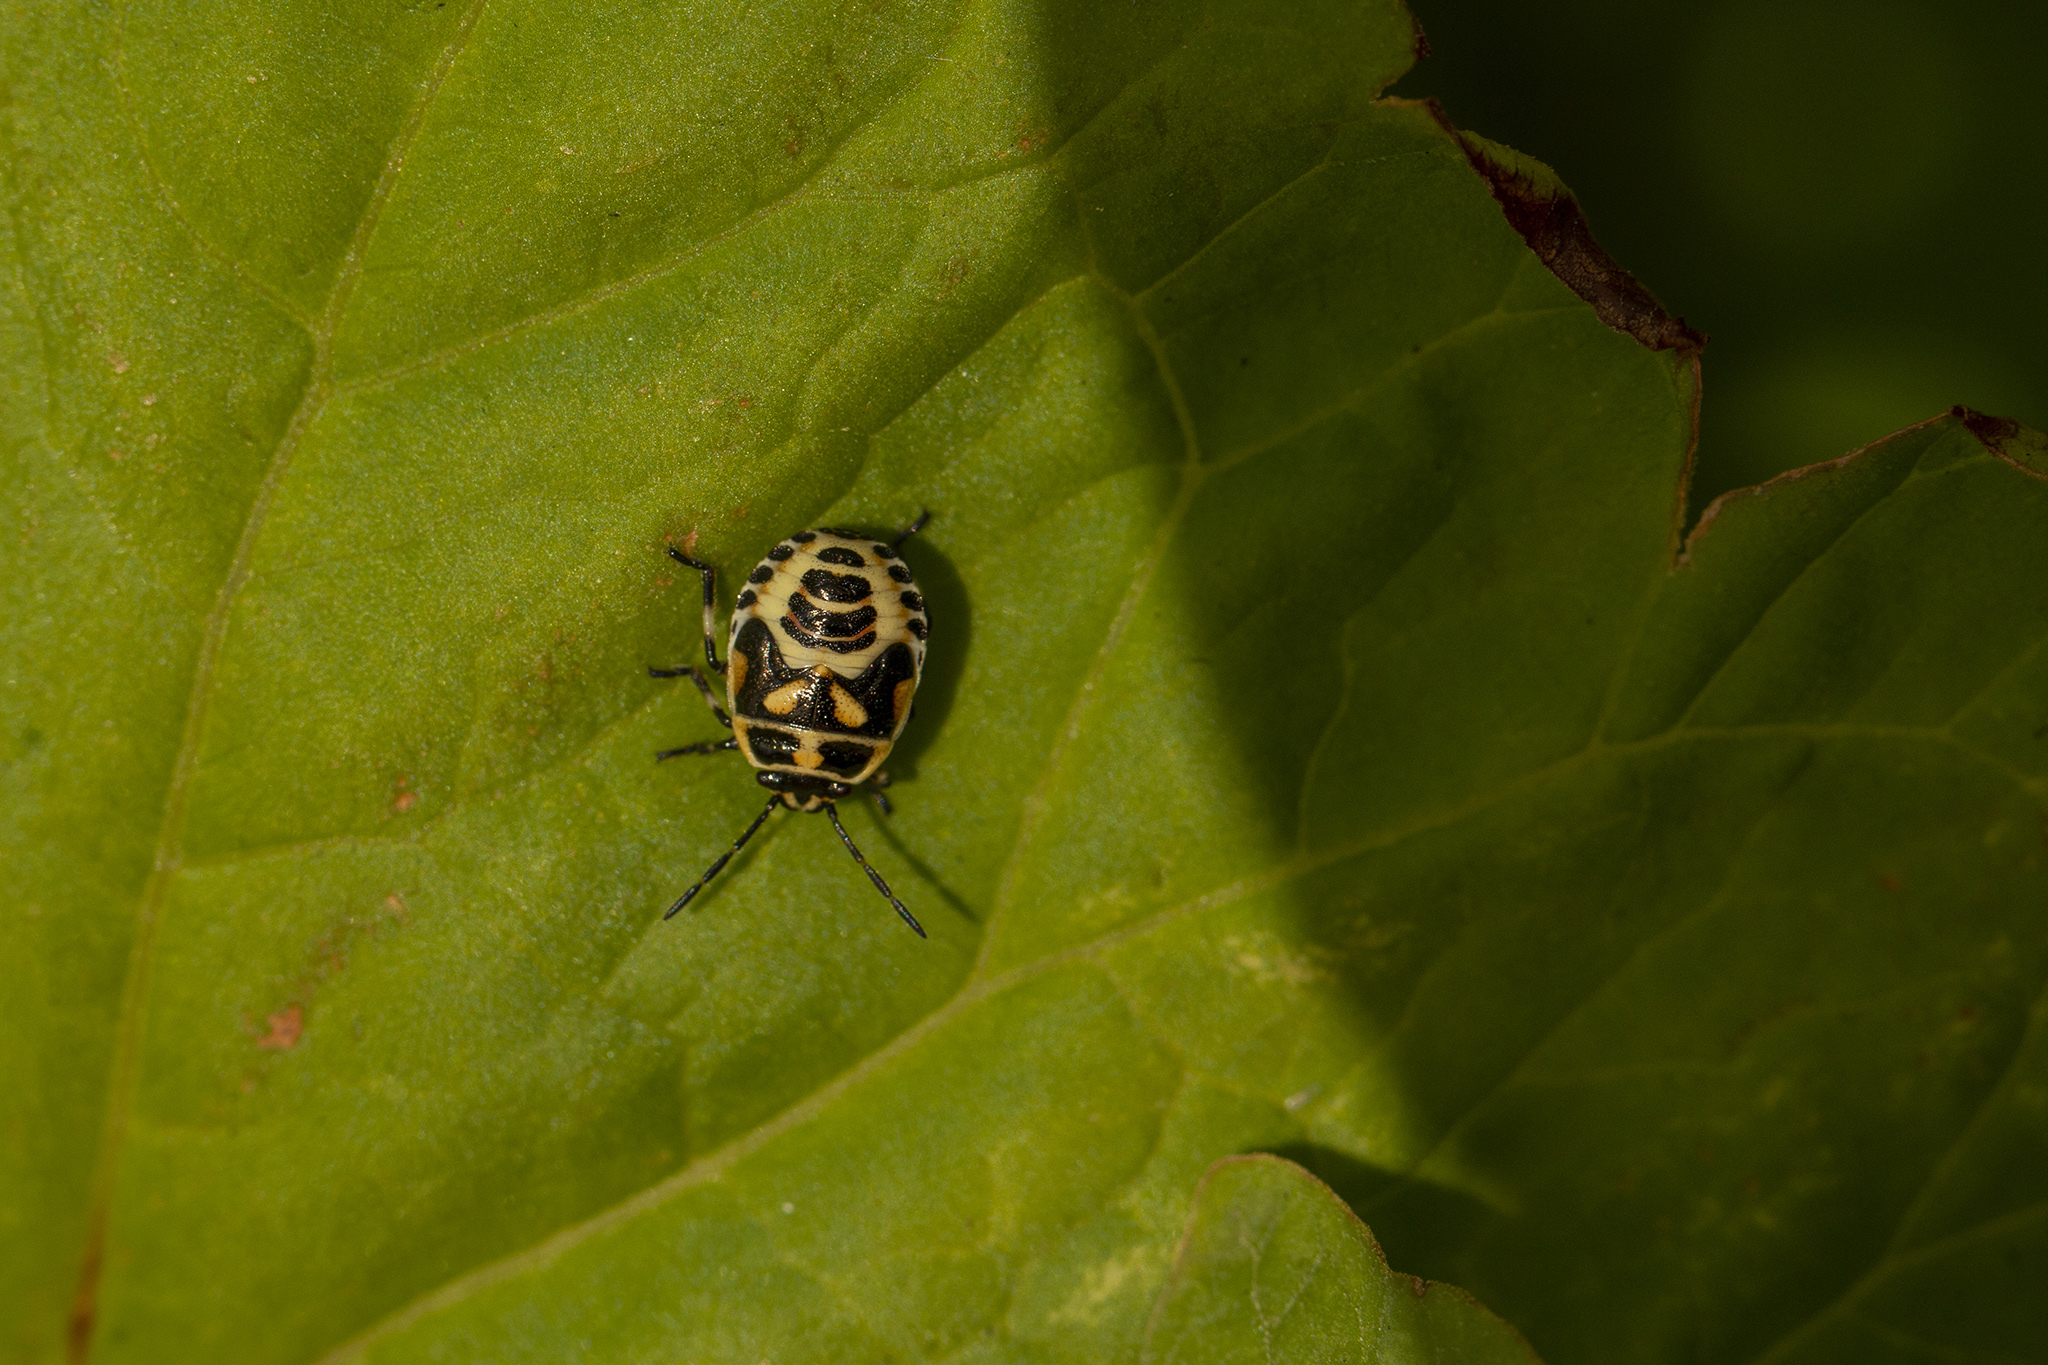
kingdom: Animalia
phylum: Arthropoda
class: Insecta
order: Hemiptera
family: Pentatomidae
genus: Eurydema
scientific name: Eurydema oleracea
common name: Cabbage bug
